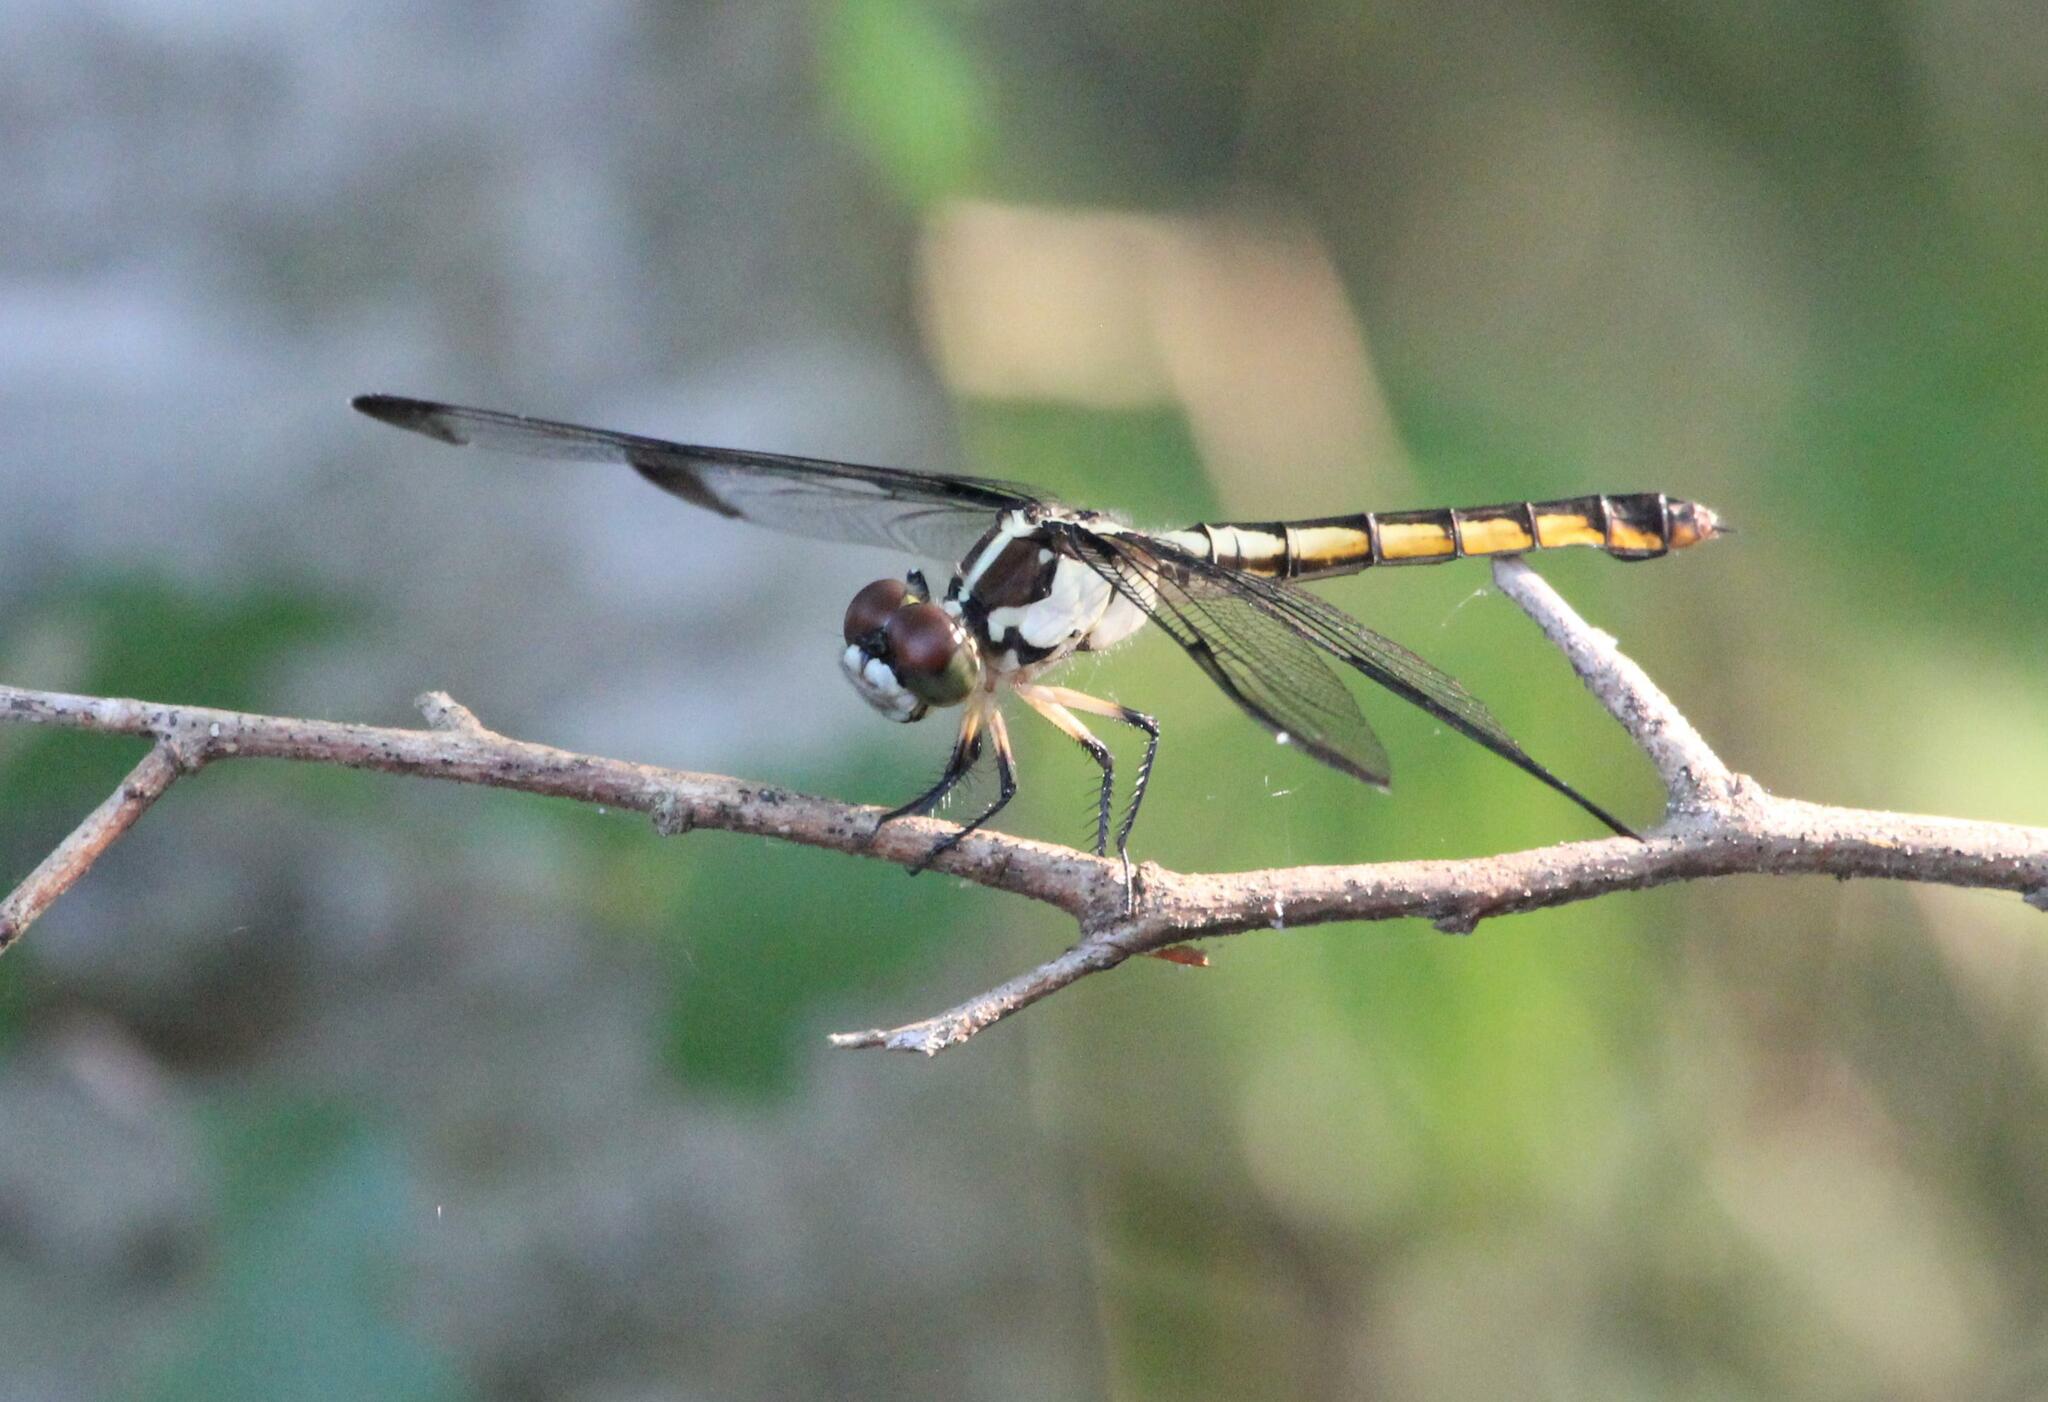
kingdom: Animalia
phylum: Arthropoda
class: Insecta
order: Odonata
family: Libellulidae
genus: Libellula
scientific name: Libellula vibrans
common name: Great blue skimmer
